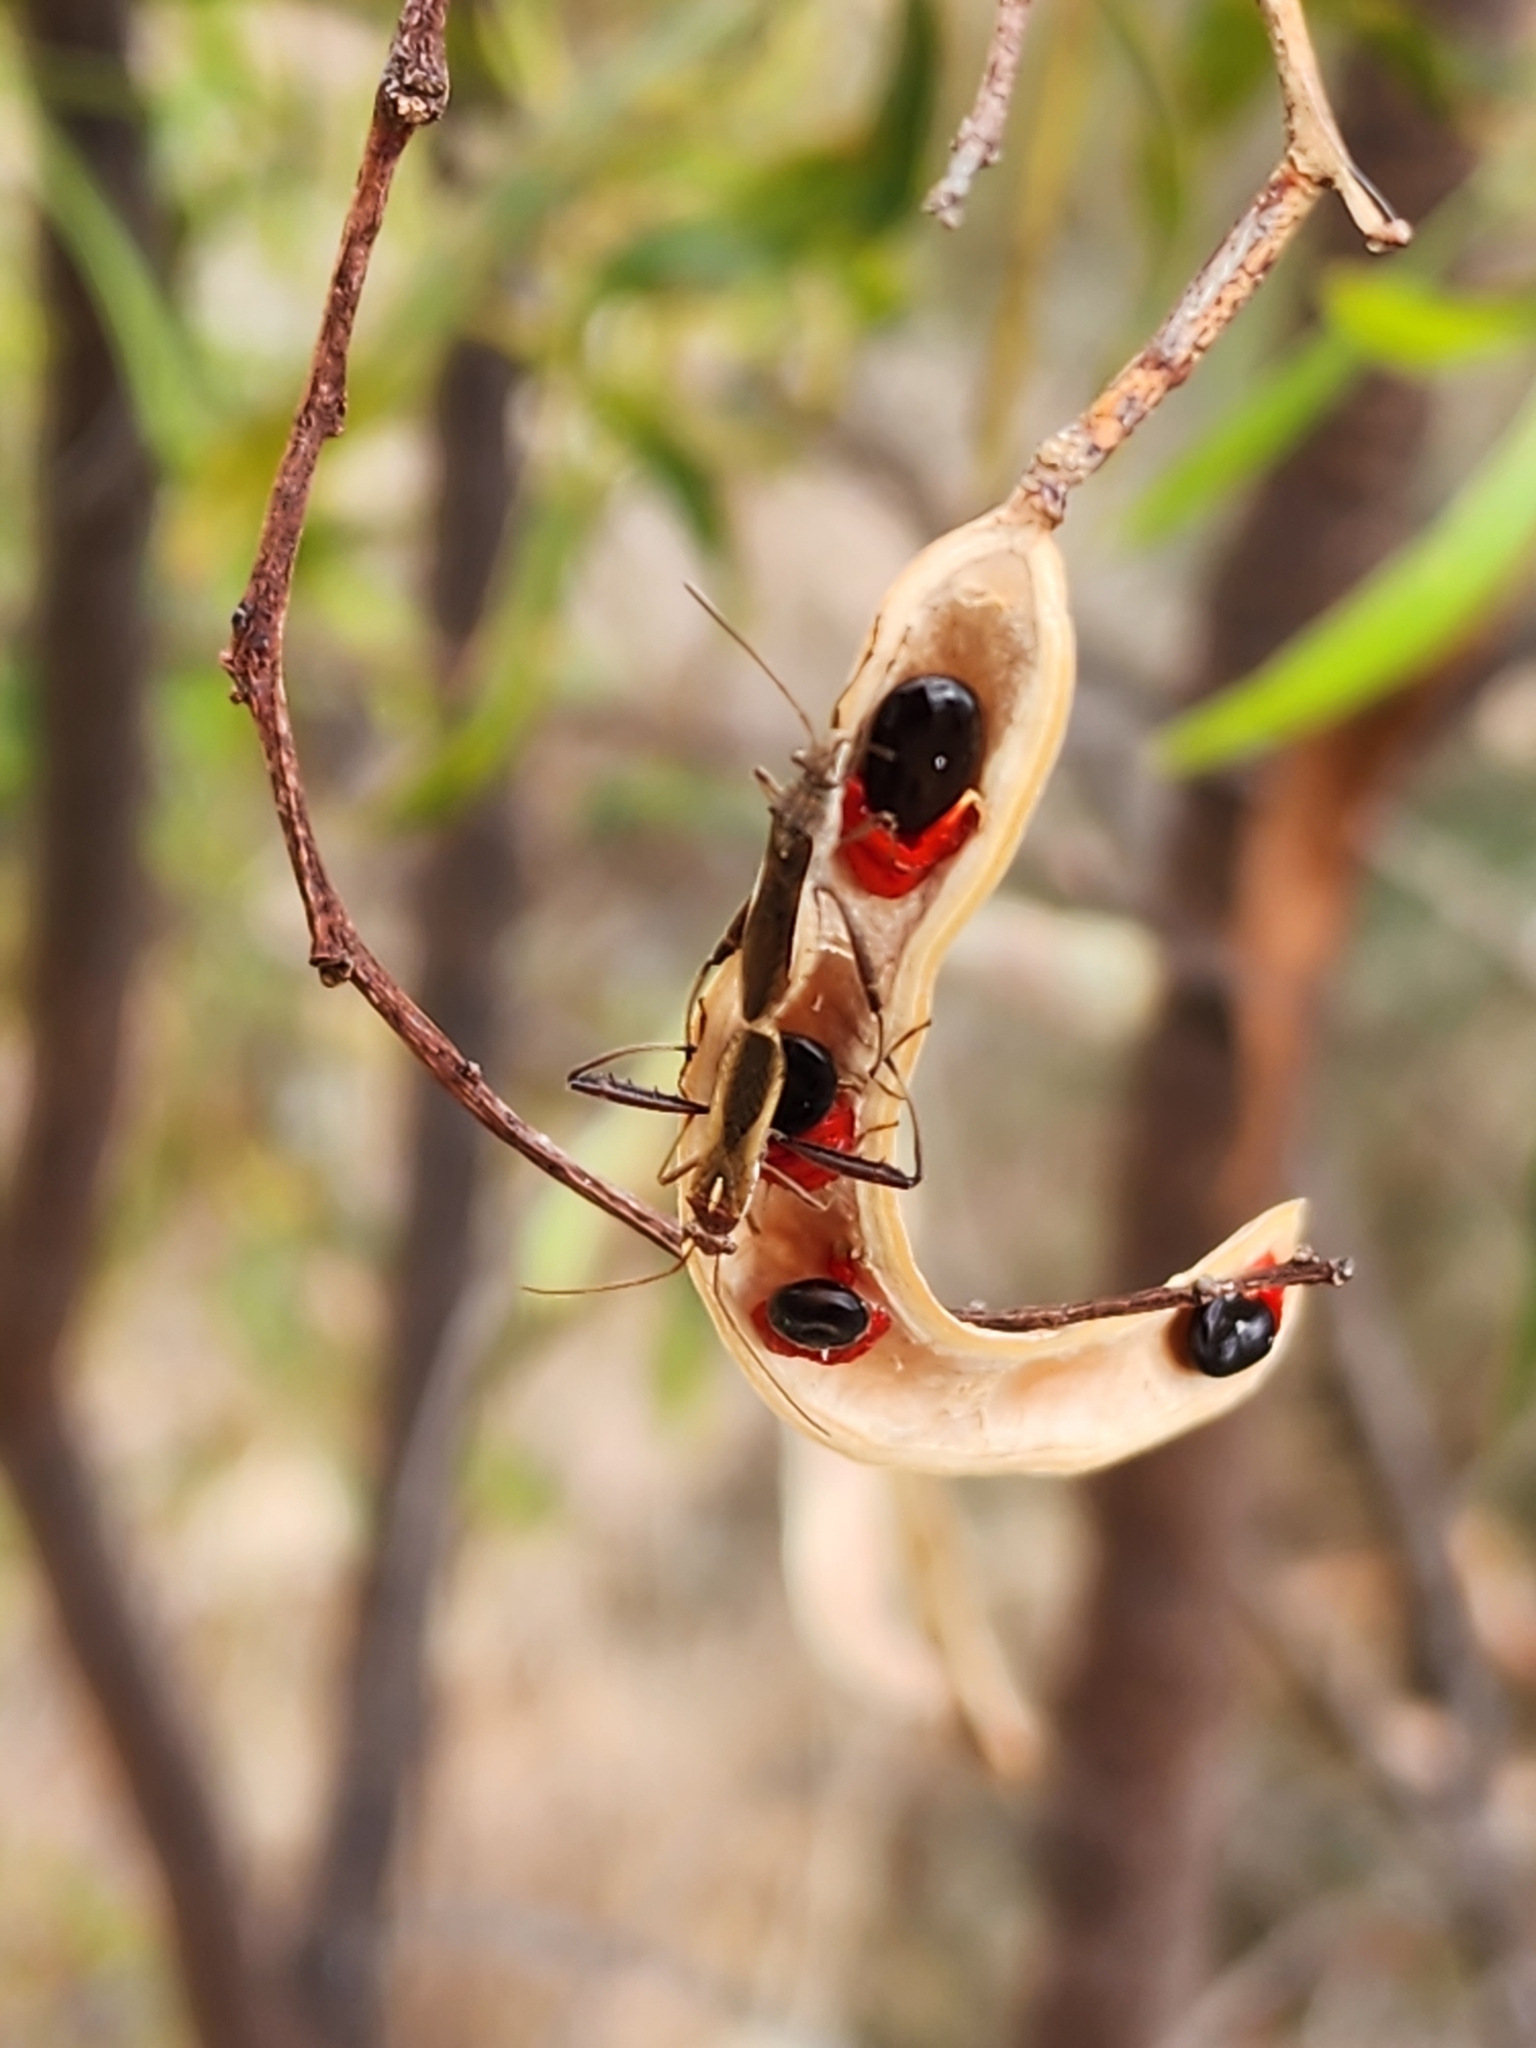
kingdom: Animalia
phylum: Arthropoda
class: Insecta
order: Hemiptera
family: Alydidae
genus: Melanacanthus
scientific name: Melanacanthus scutellaris
